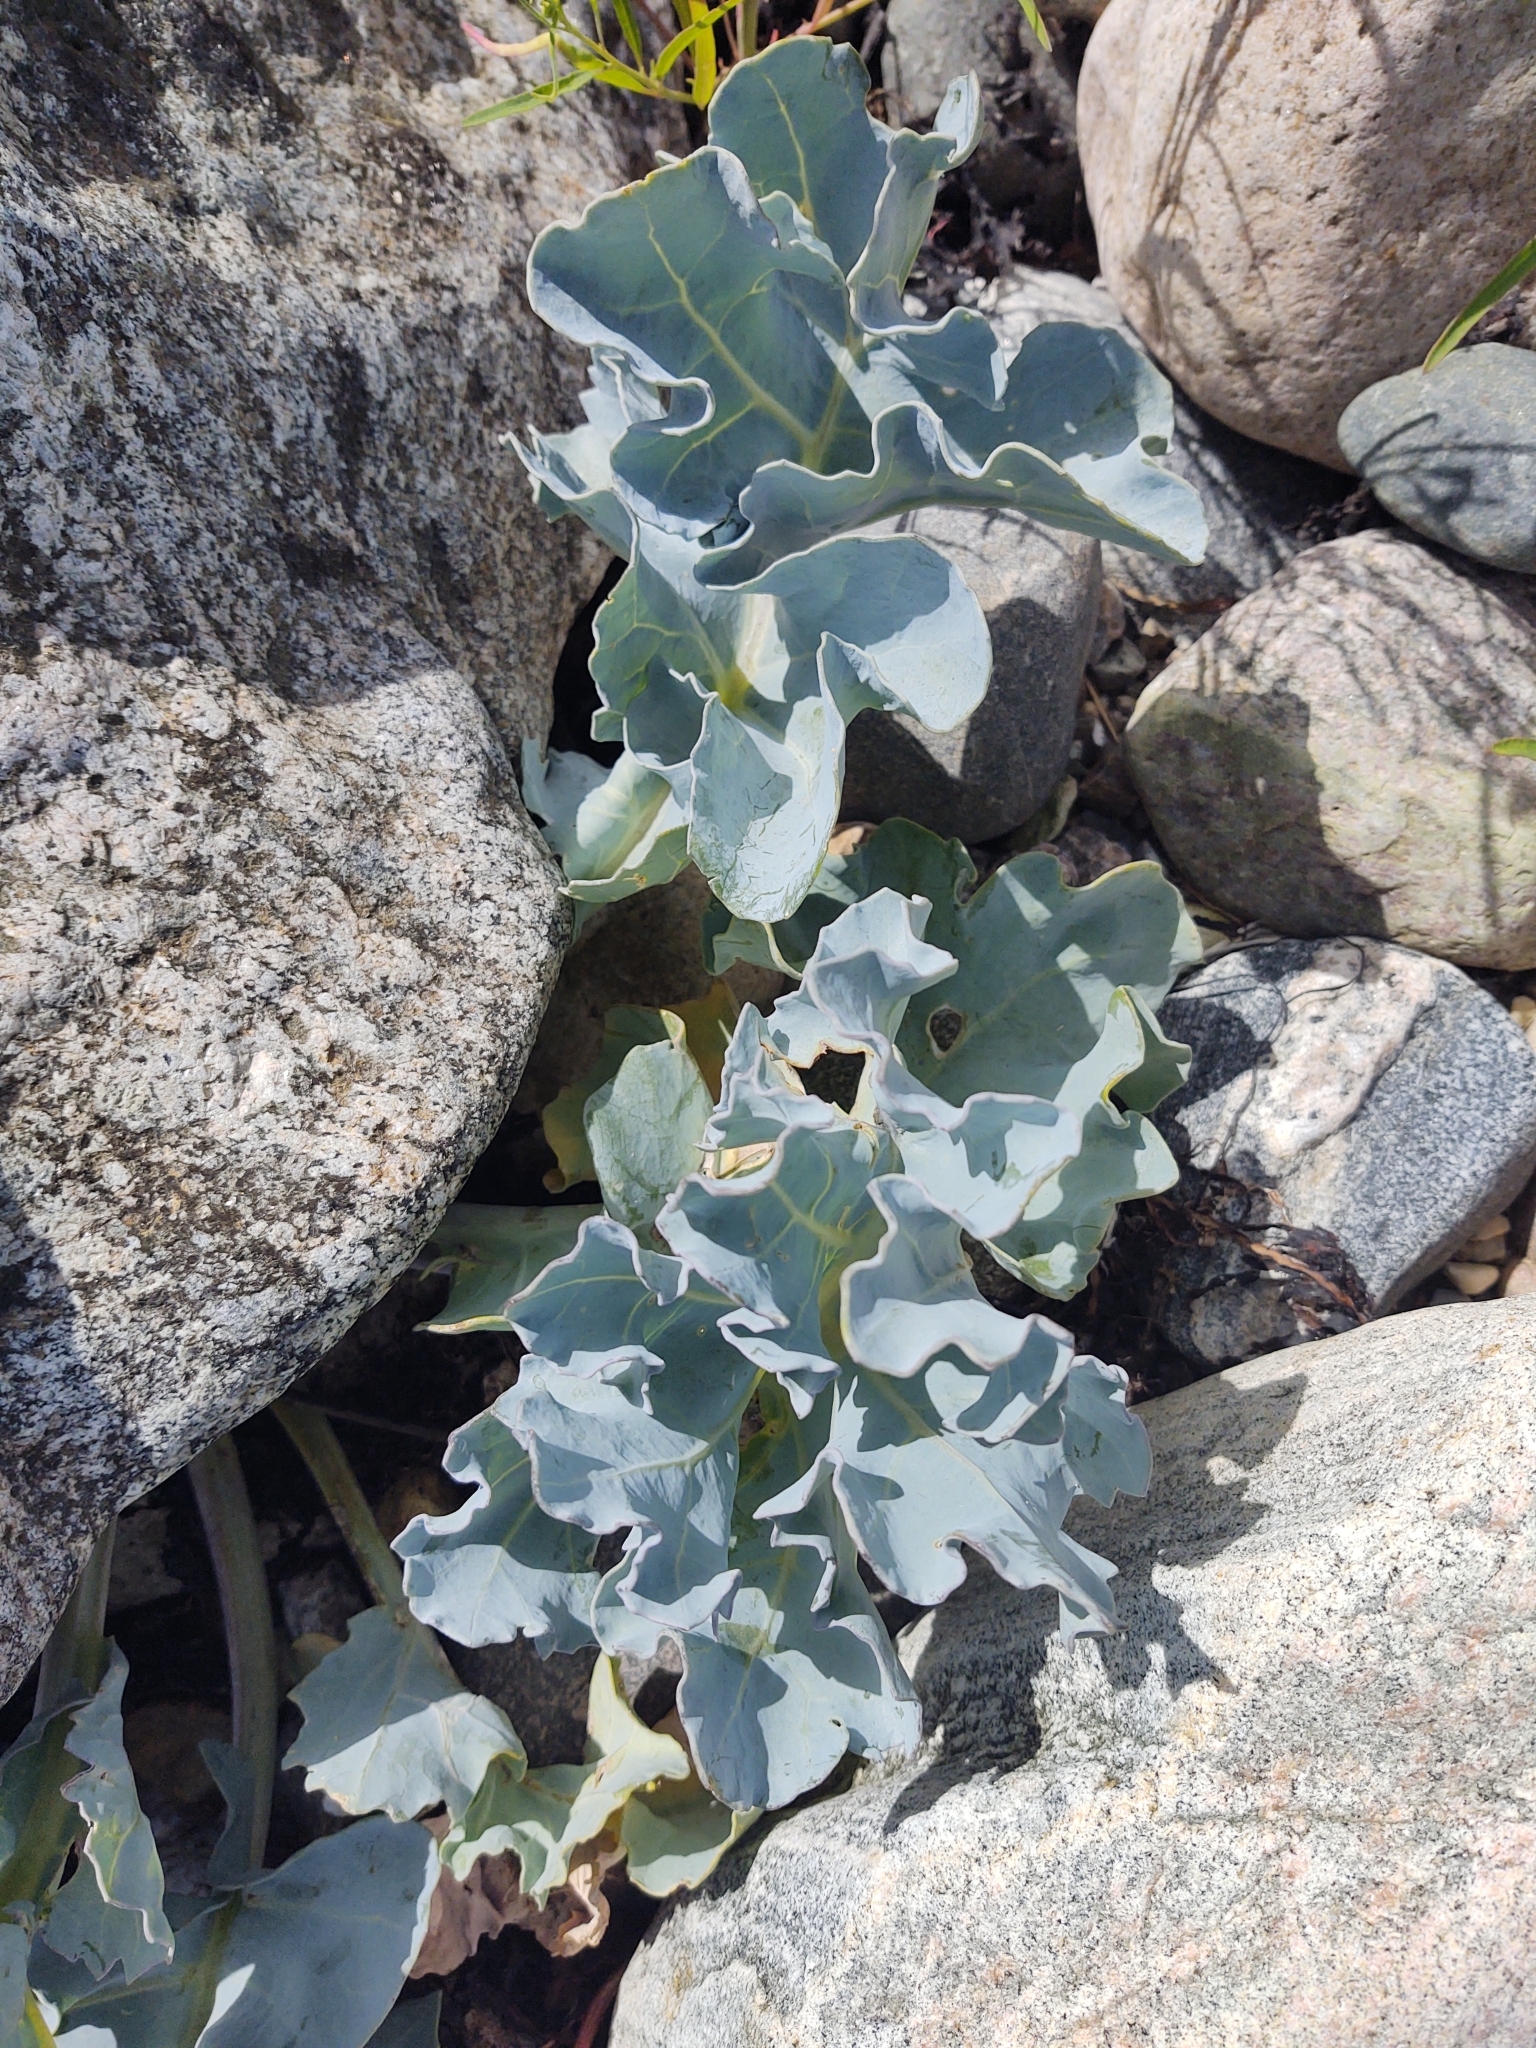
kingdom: Plantae
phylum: Tracheophyta
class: Magnoliopsida
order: Brassicales
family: Brassicaceae
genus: Crambe
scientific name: Crambe maritima
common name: Sea-kale
